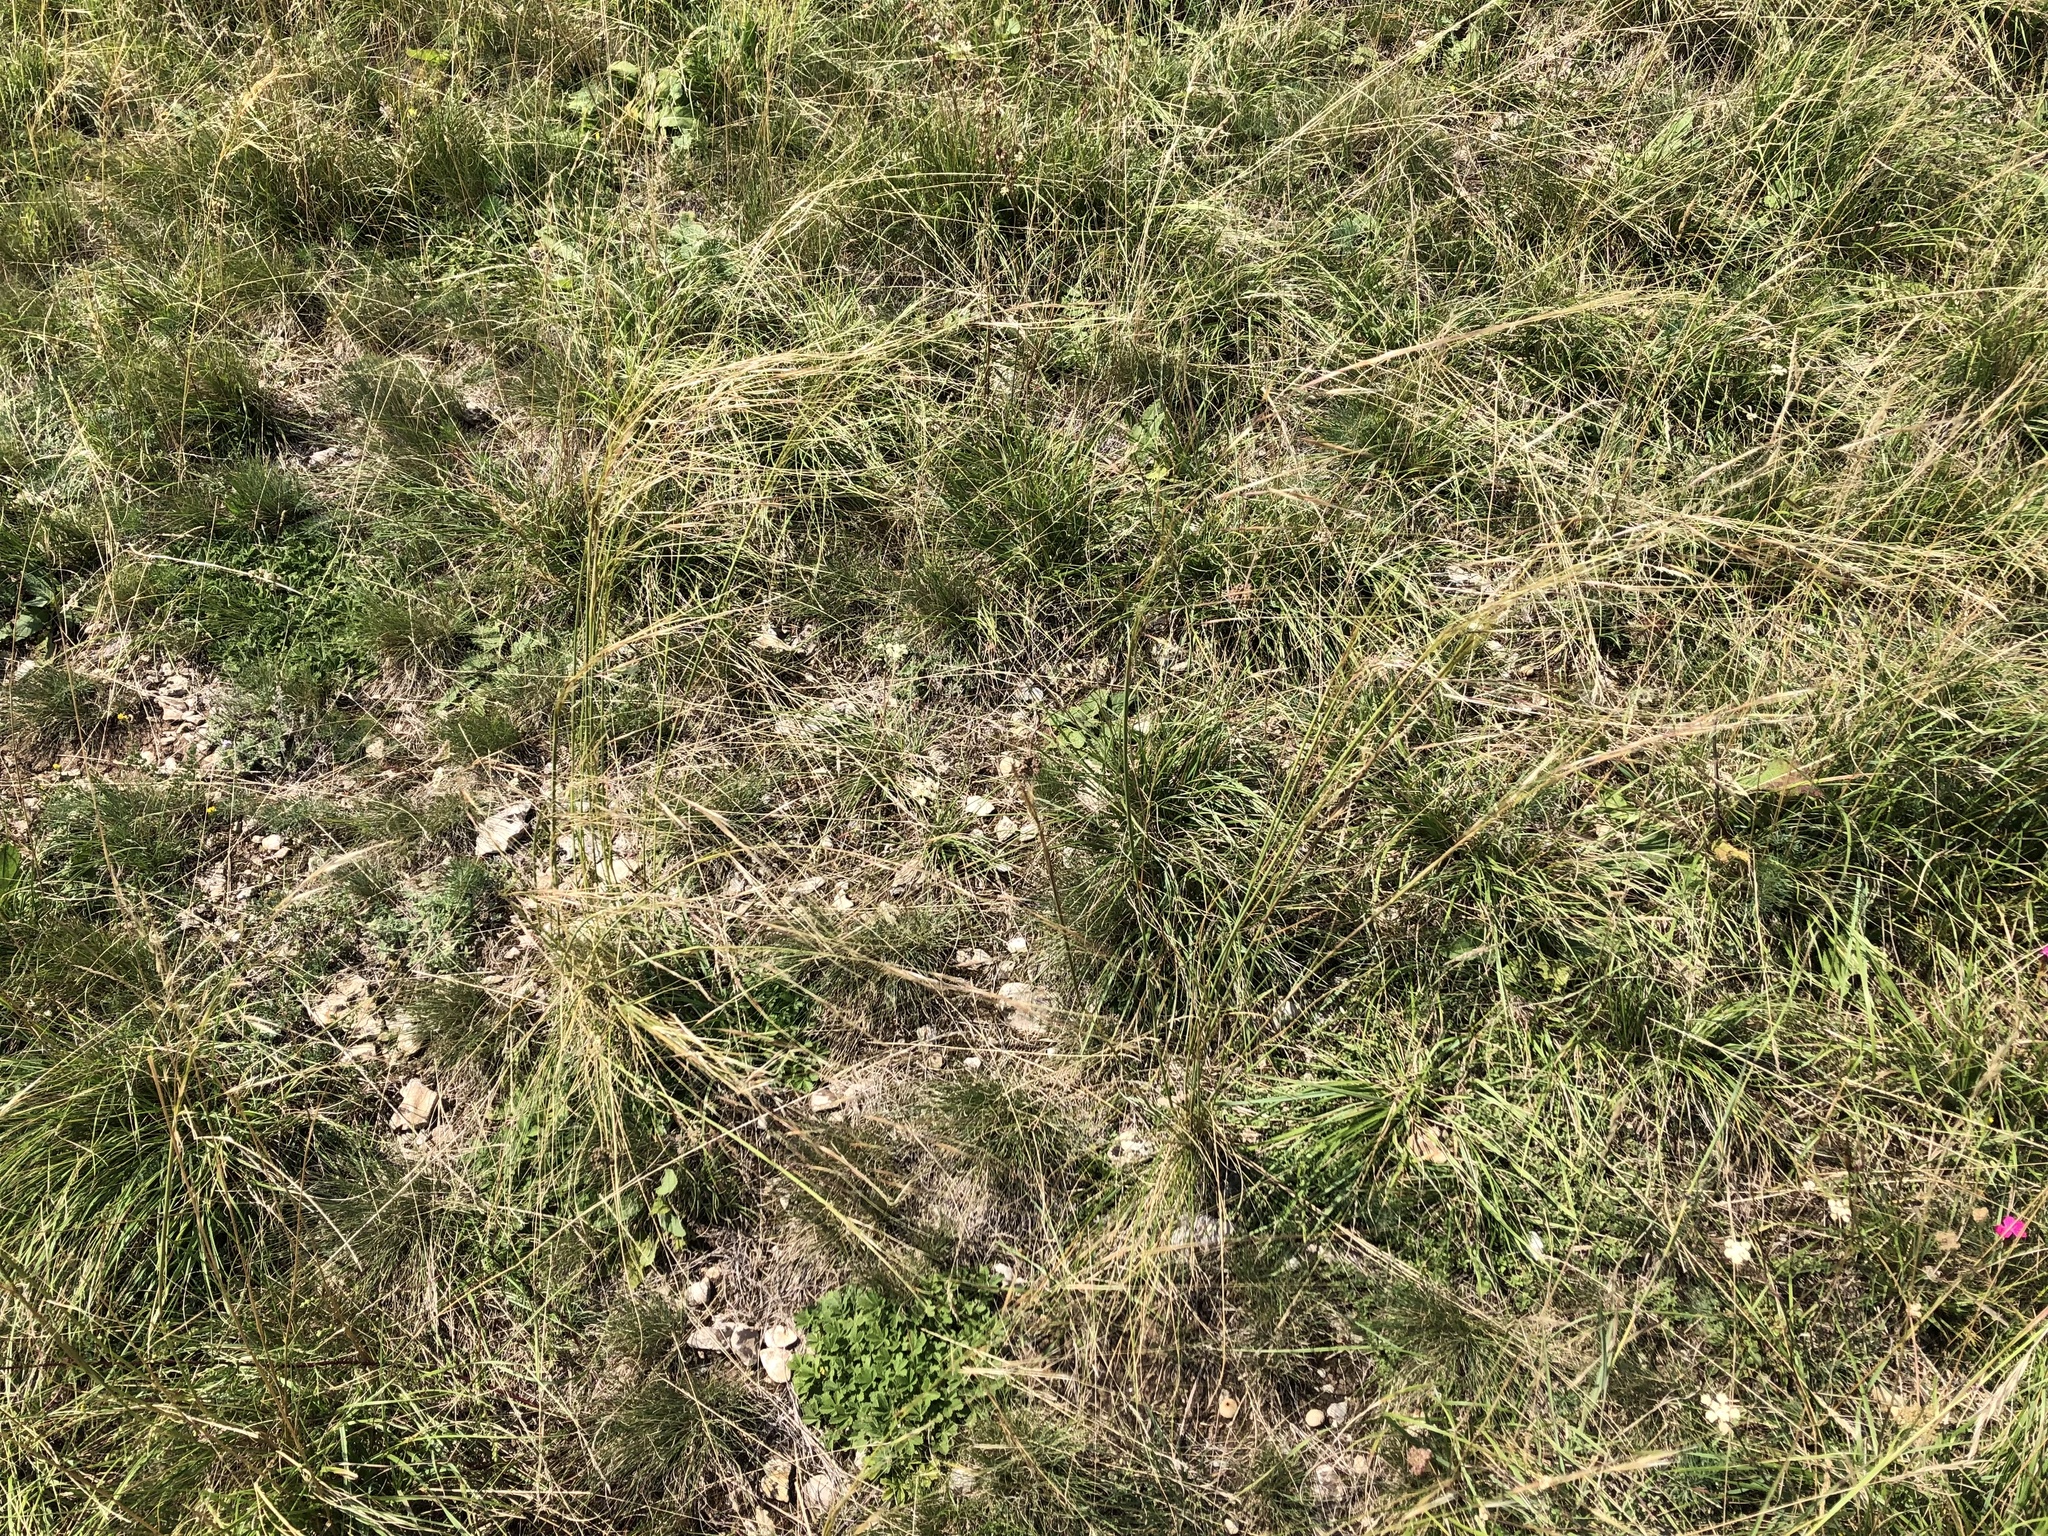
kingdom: Plantae
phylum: Tracheophyta
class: Liliopsida
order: Poales
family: Poaceae
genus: Stipa
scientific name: Stipa capillata
